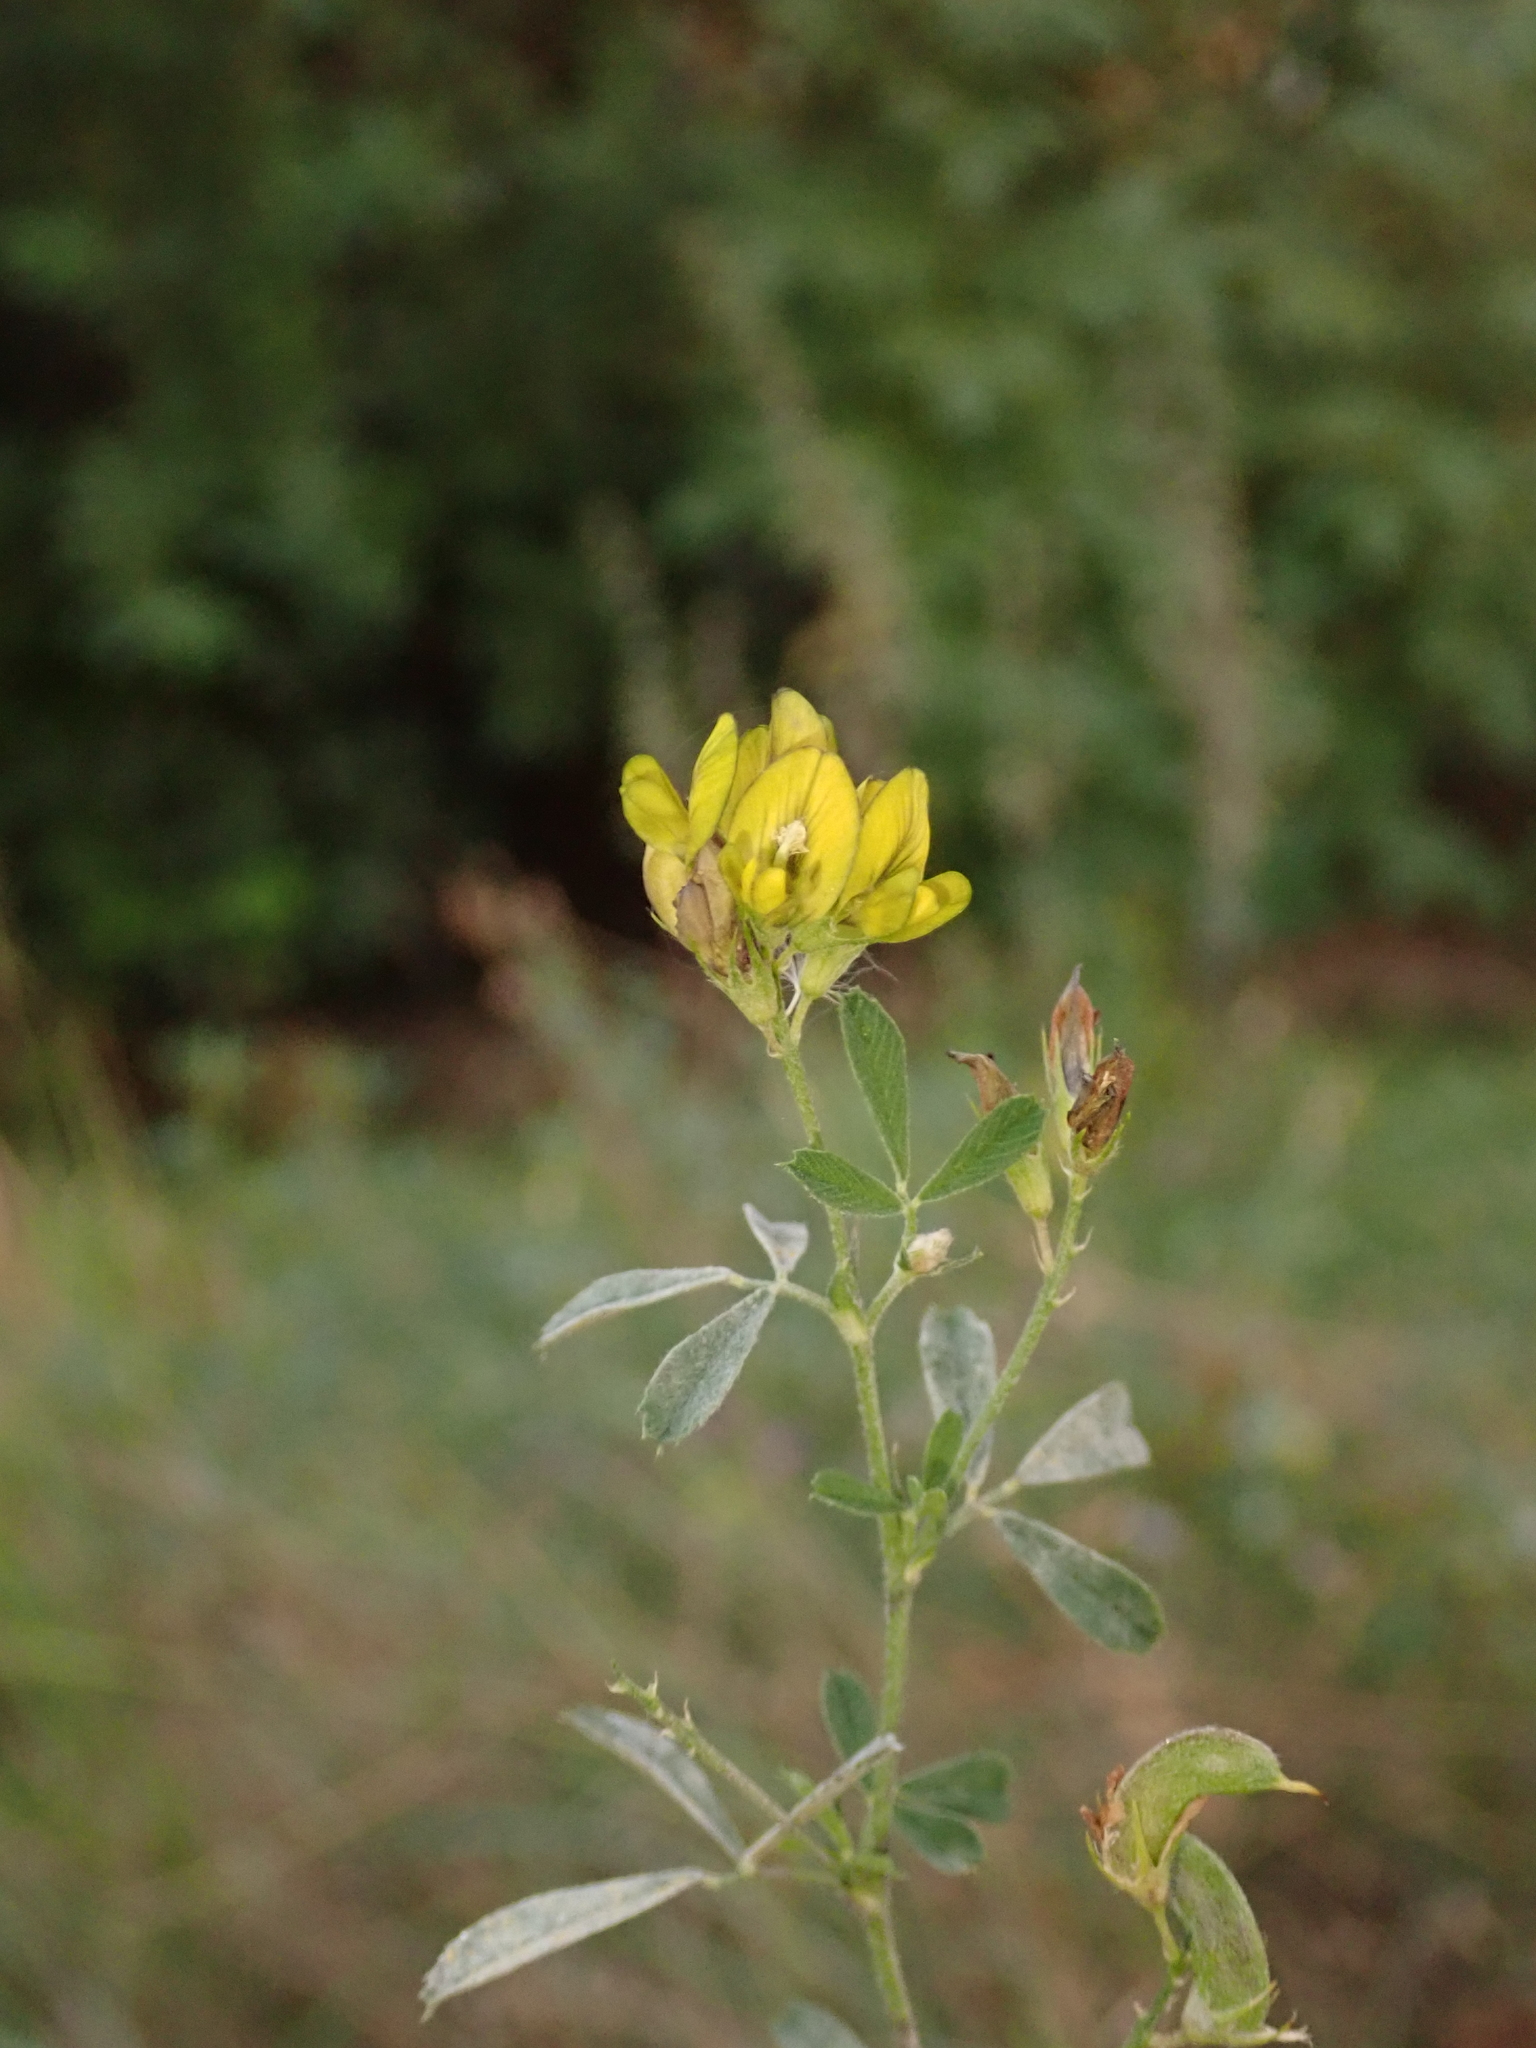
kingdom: Plantae
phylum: Tracheophyta
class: Magnoliopsida
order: Fabales
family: Fabaceae
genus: Medicago
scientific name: Medicago varia
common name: Sand lucerne
